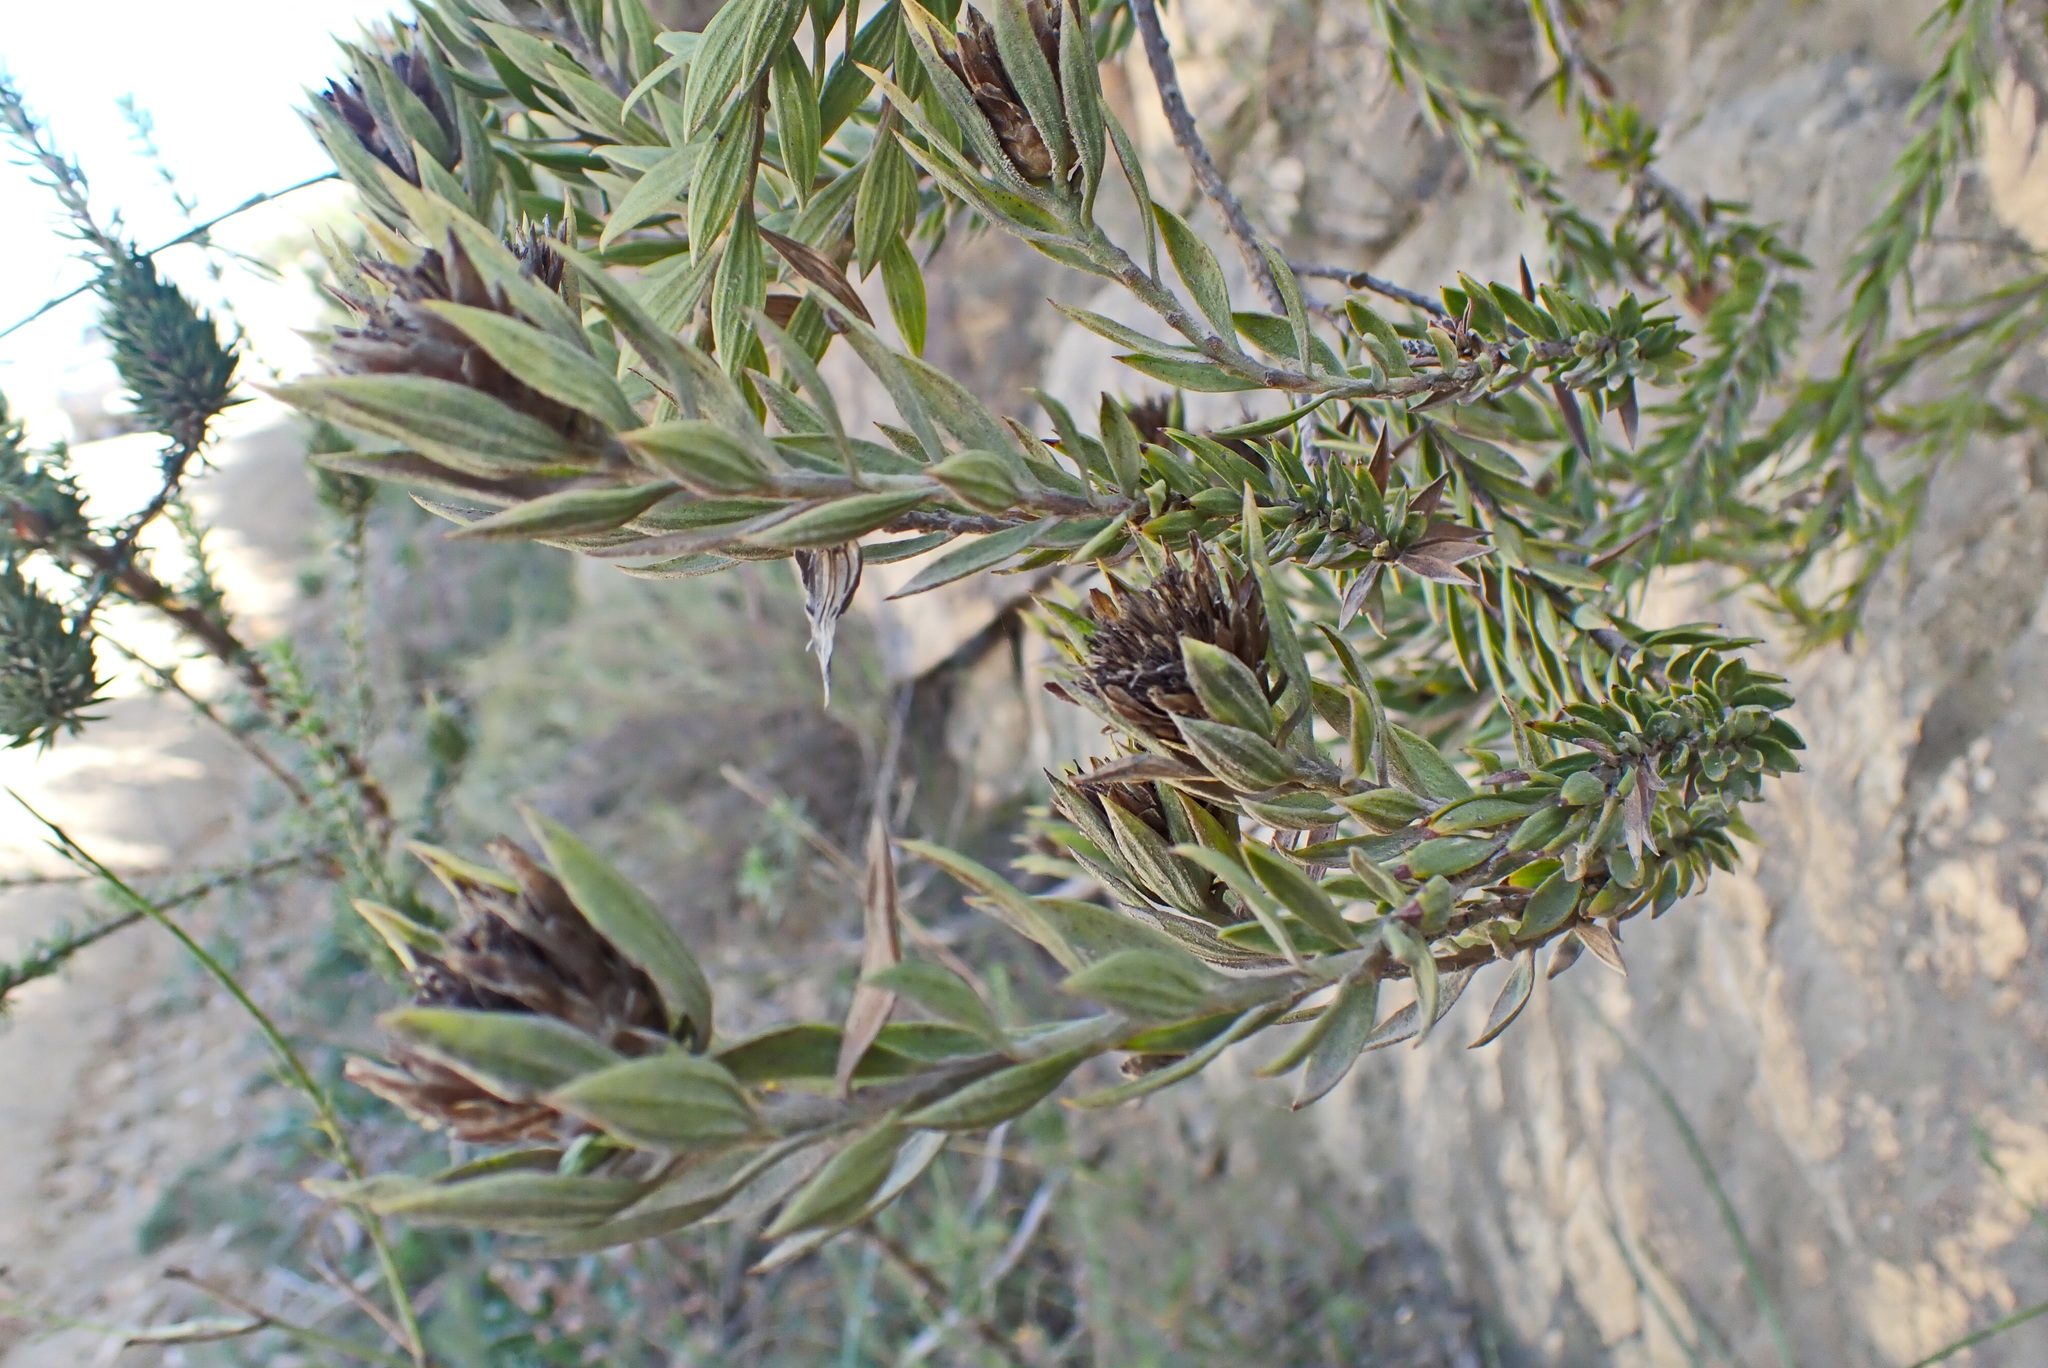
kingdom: Plantae
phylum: Tracheophyta
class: Magnoliopsida
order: Asterales
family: Asteraceae
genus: Oedera
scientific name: Oedera calycina
